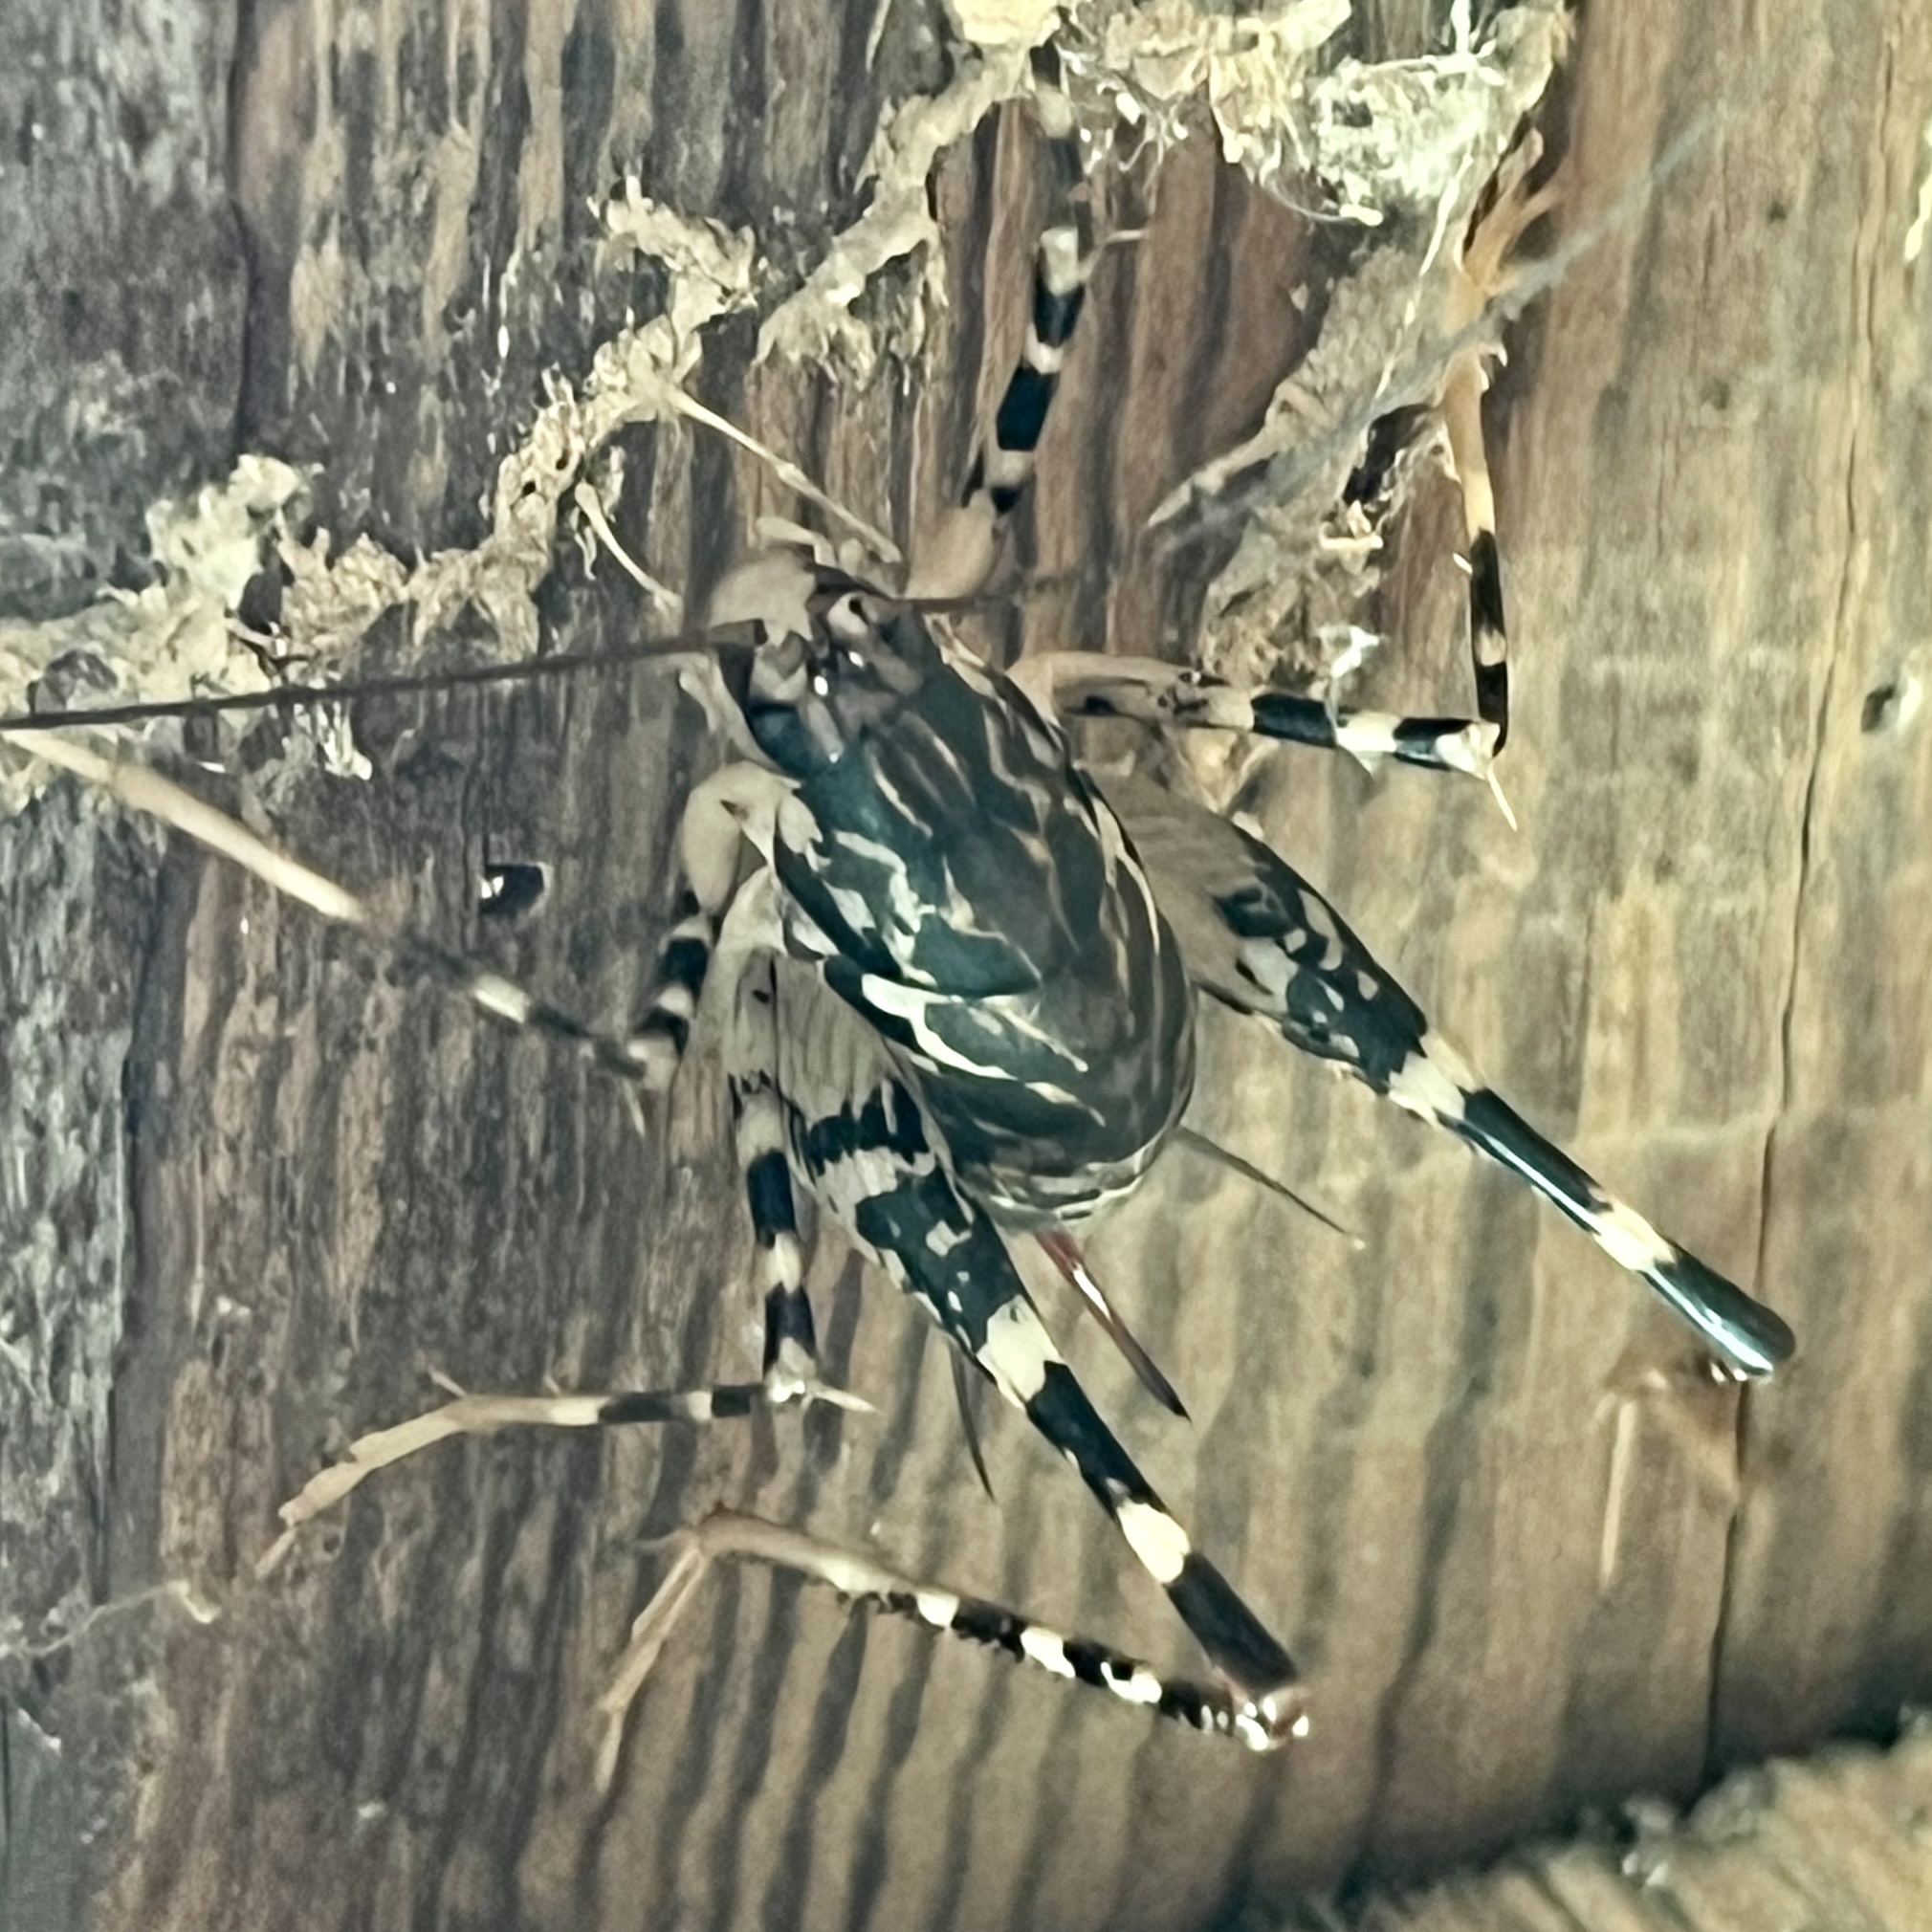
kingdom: Animalia
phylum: Arthropoda
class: Insecta
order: Orthoptera
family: Rhaphidophoridae
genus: Diestrammena
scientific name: Diestrammena japanica
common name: Japanese camel cricket
